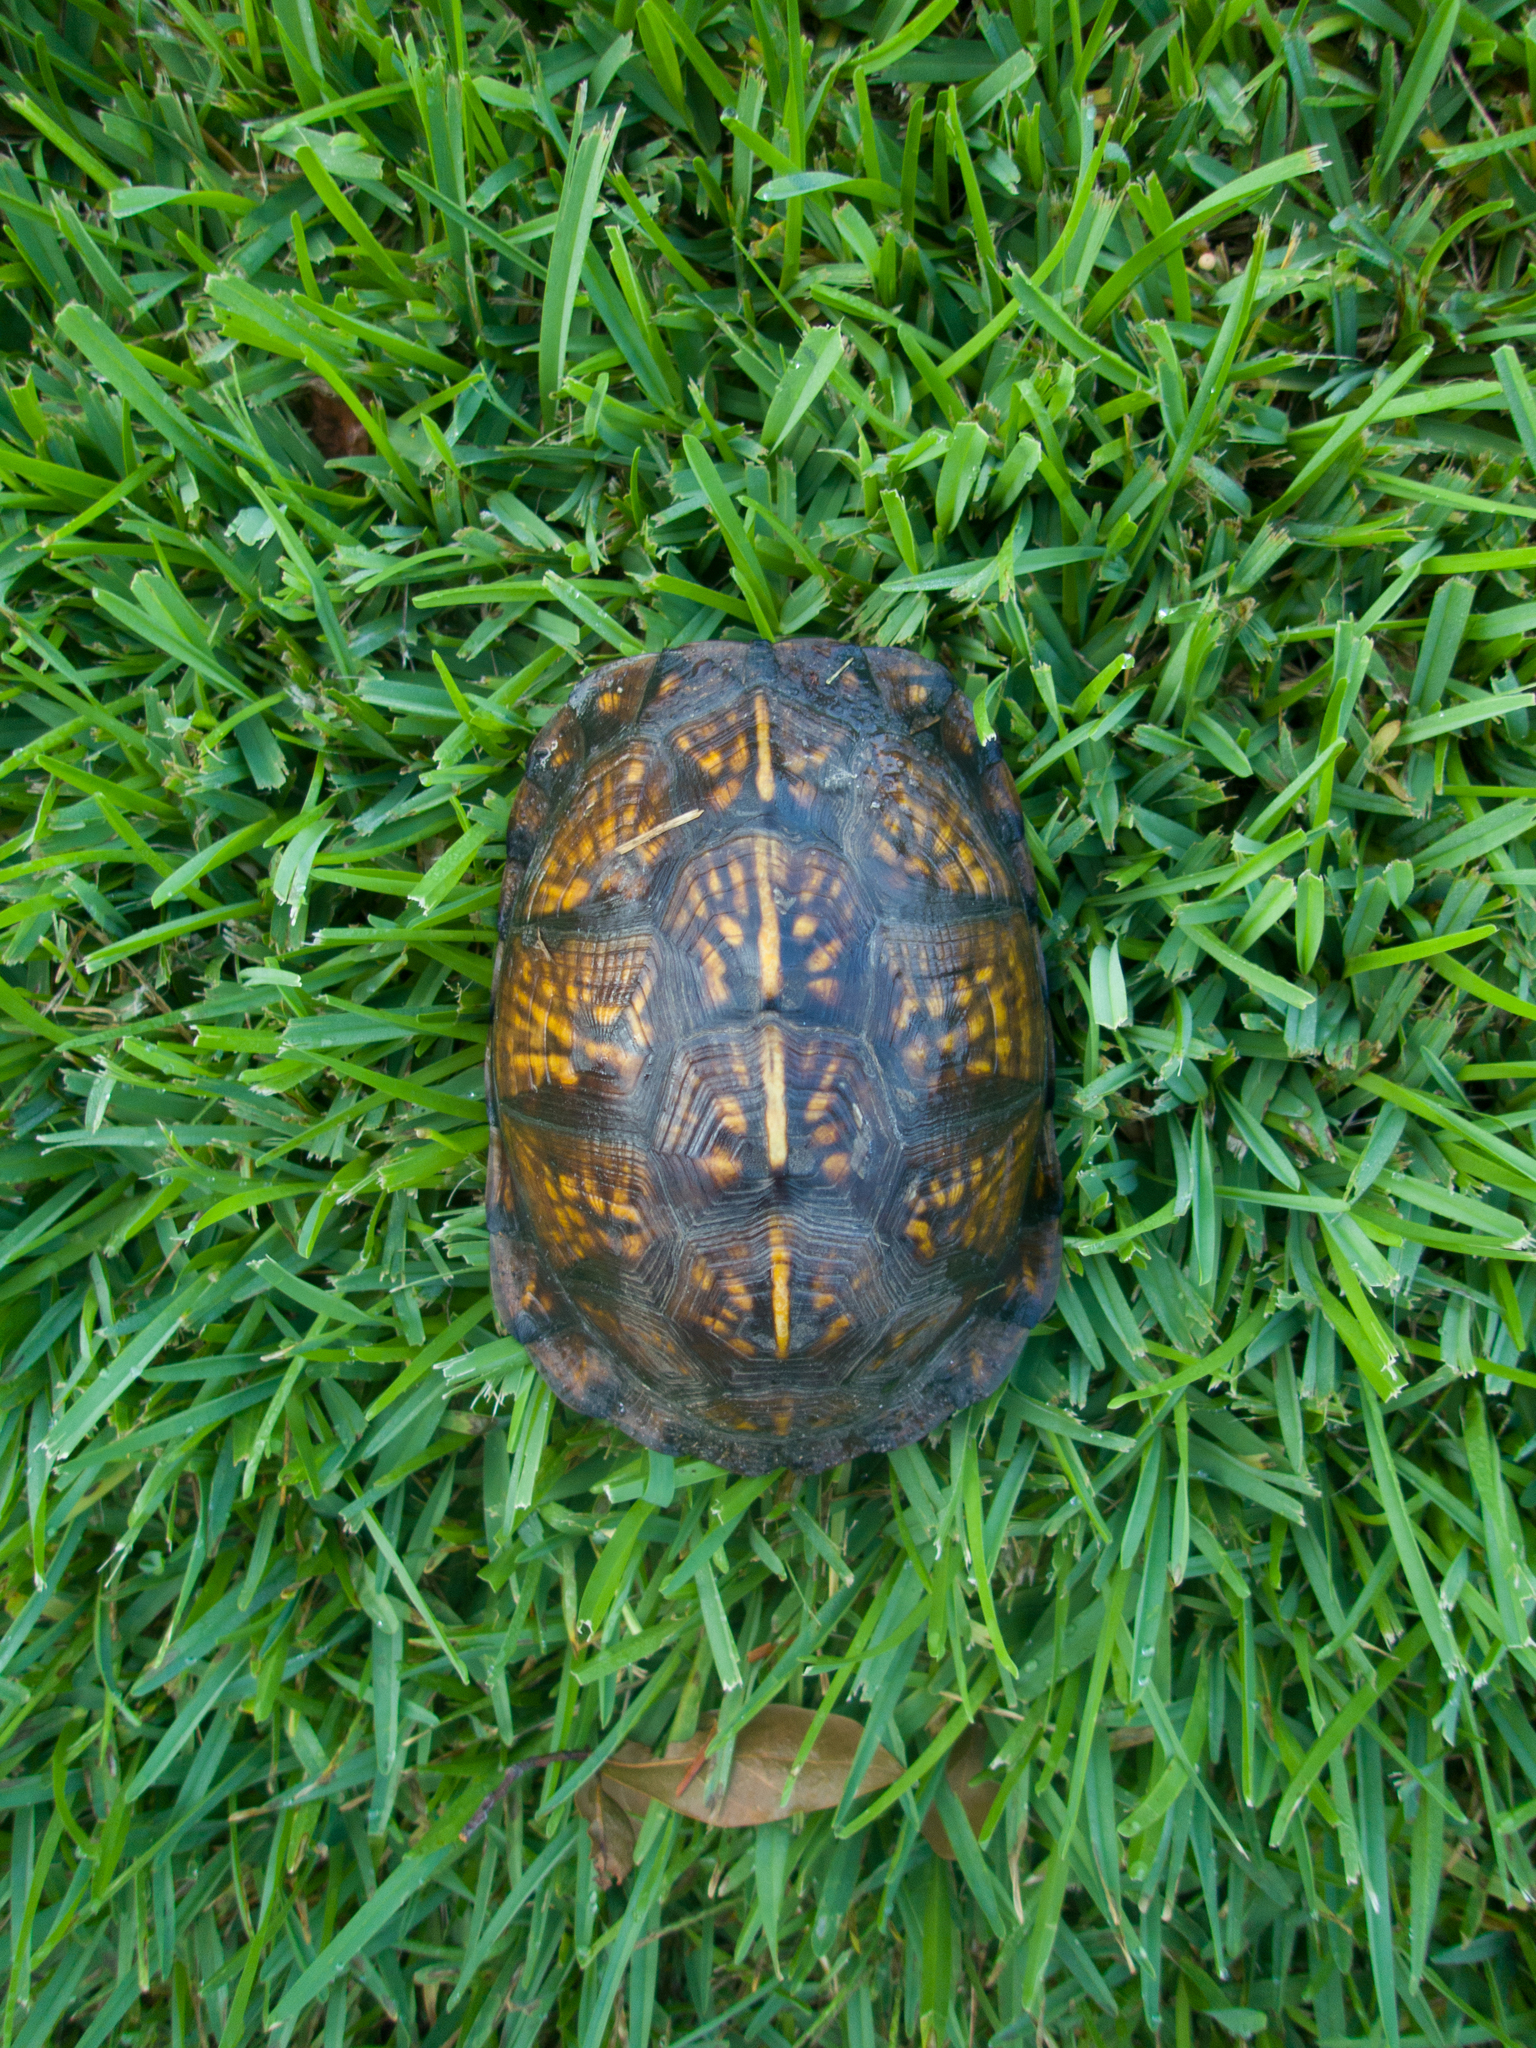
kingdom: Animalia
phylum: Chordata
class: Testudines
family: Emydidae
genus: Terrapene
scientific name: Terrapene carolina
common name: Common box turtle
